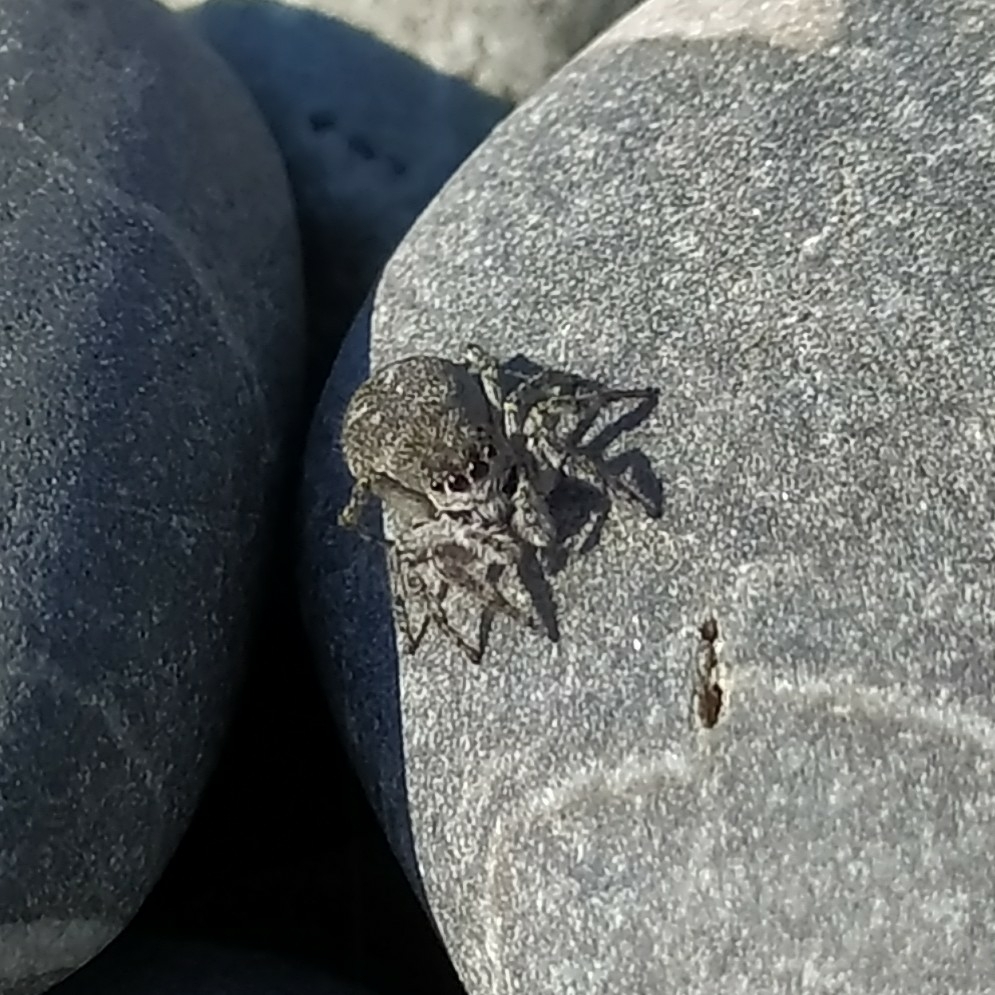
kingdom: Animalia
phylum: Arthropoda
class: Arachnida
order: Araneae
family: Salticidae
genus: Attulus
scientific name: Attulus damini
